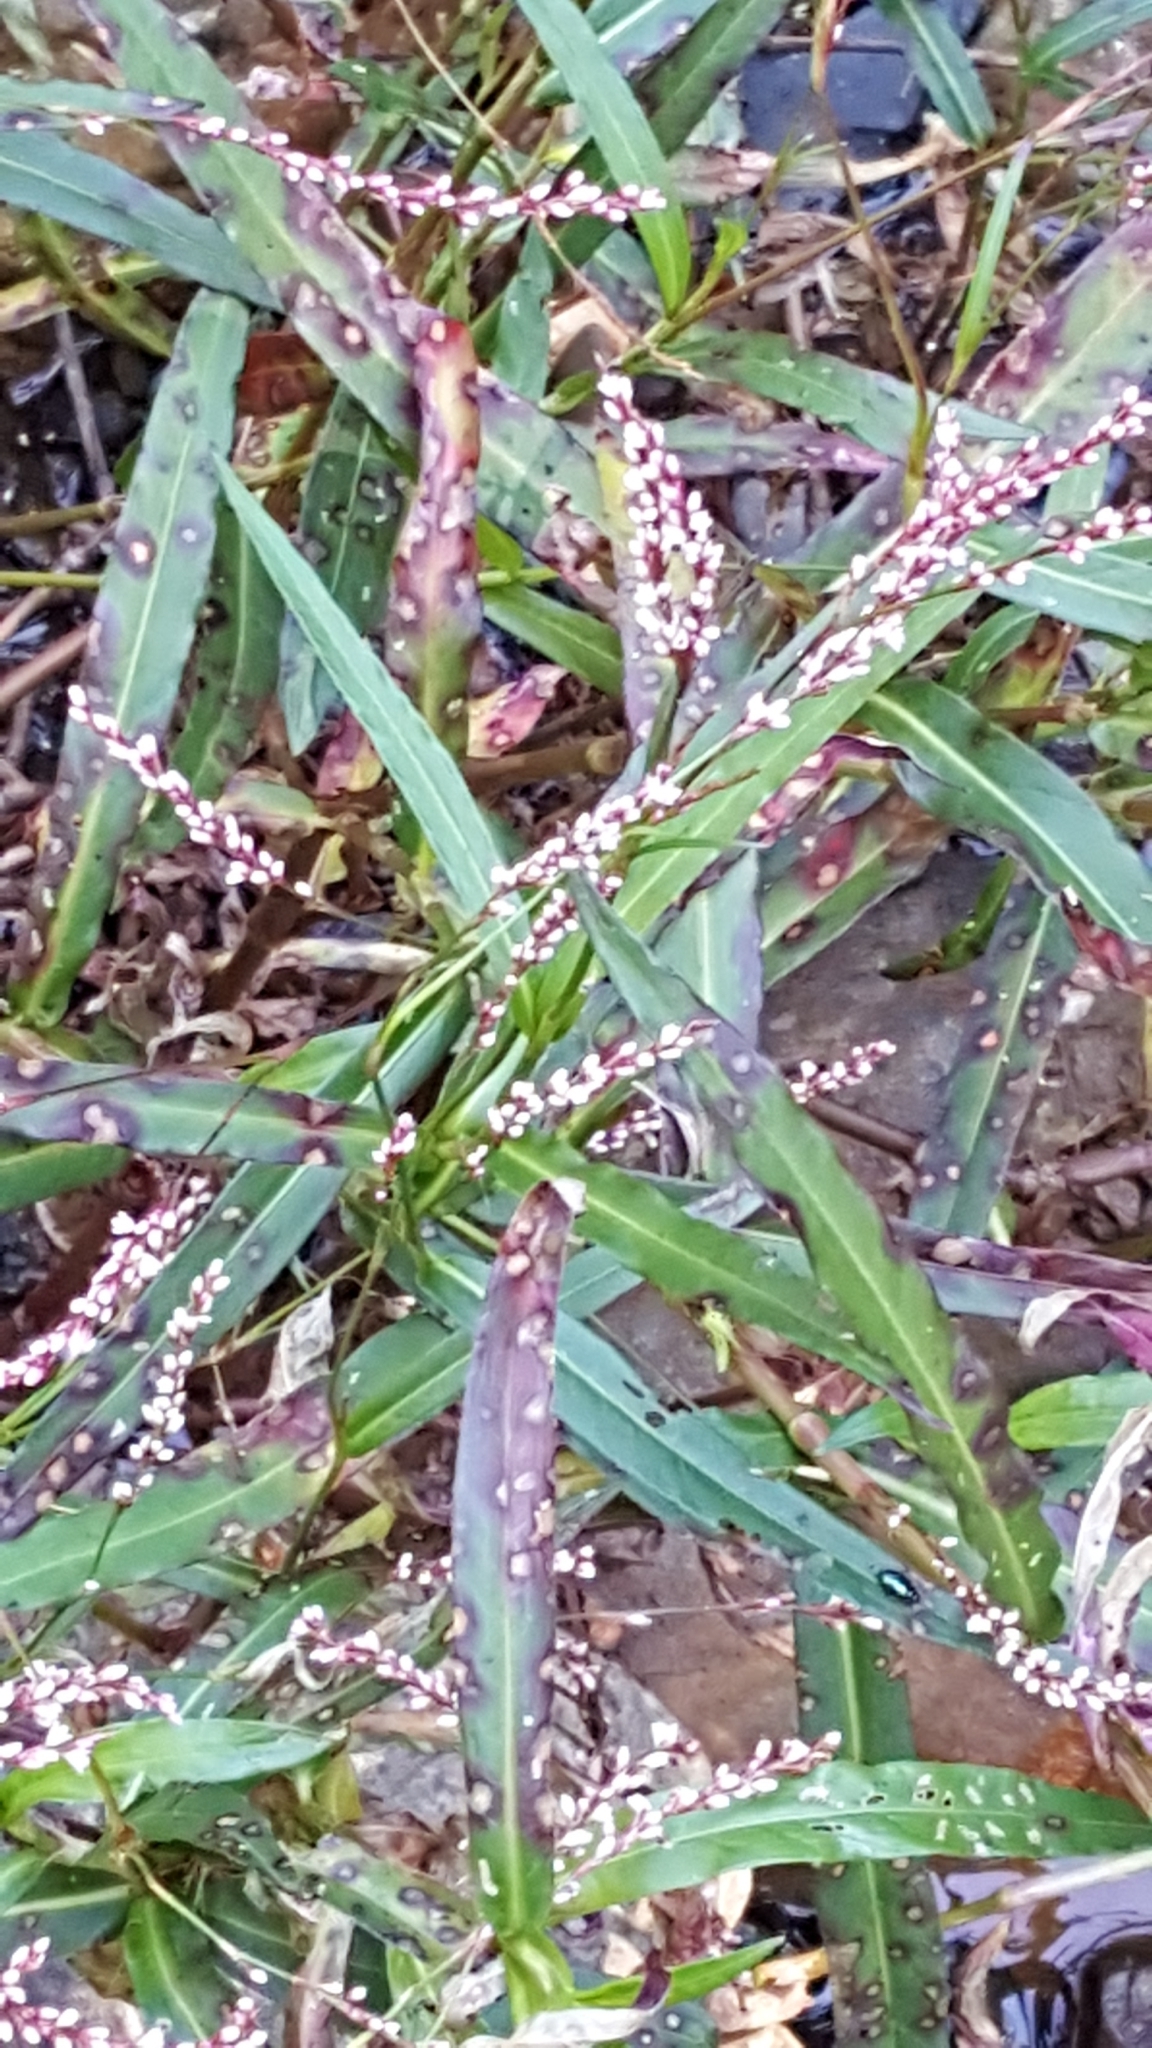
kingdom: Plantae
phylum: Tracheophyta
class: Magnoliopsida
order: Caryophyllales
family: Polygonaceae
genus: Persicaria
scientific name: Persicaria decipiens
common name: Willow-weed
